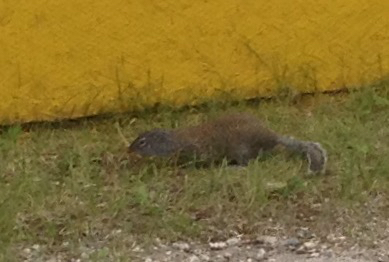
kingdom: Animalia
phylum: Chordata
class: Mammalia
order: Rodentia
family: Sciuridae
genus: Poliocitellus
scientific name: Poliocitellus franklinii
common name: Franklin's ground squirrel
